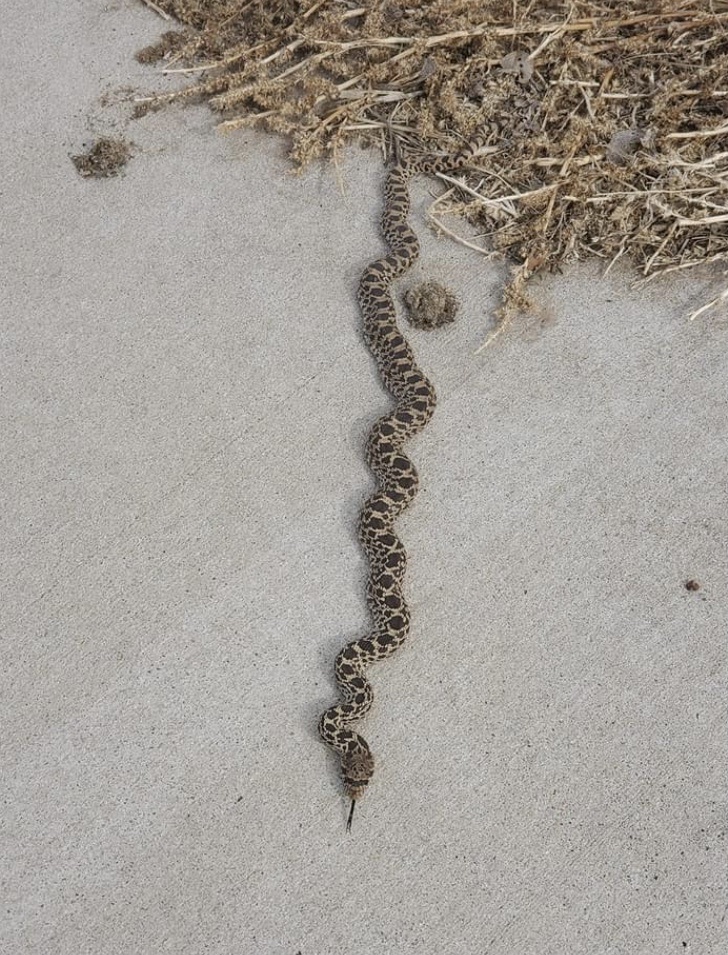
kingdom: Animalia
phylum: Chordata
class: Squamata
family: Colubridae
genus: Pituophis
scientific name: Pituophis catenifer
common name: Gopher snake
